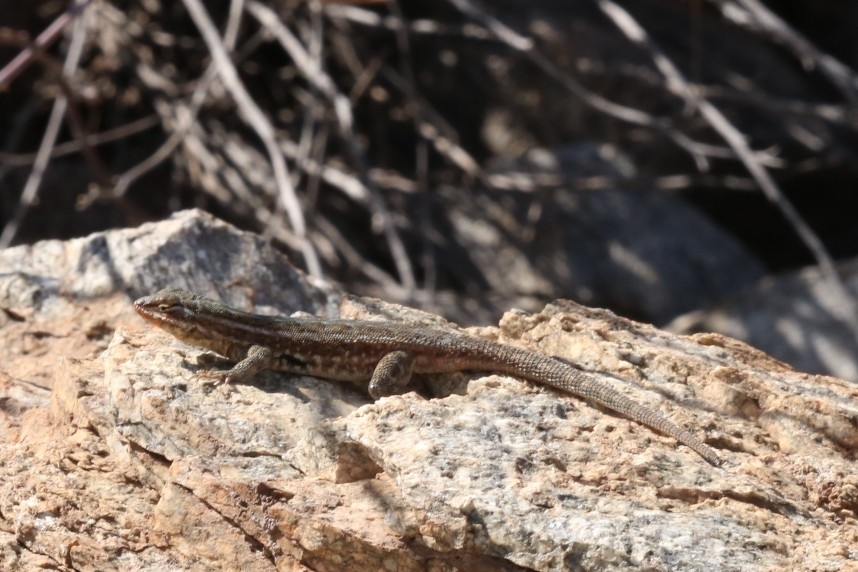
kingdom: Animalia
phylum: Chordata
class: Squamata
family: Phrynosomatidae
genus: Uta
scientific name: Uta stansburiana
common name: Side-blotched lizard
